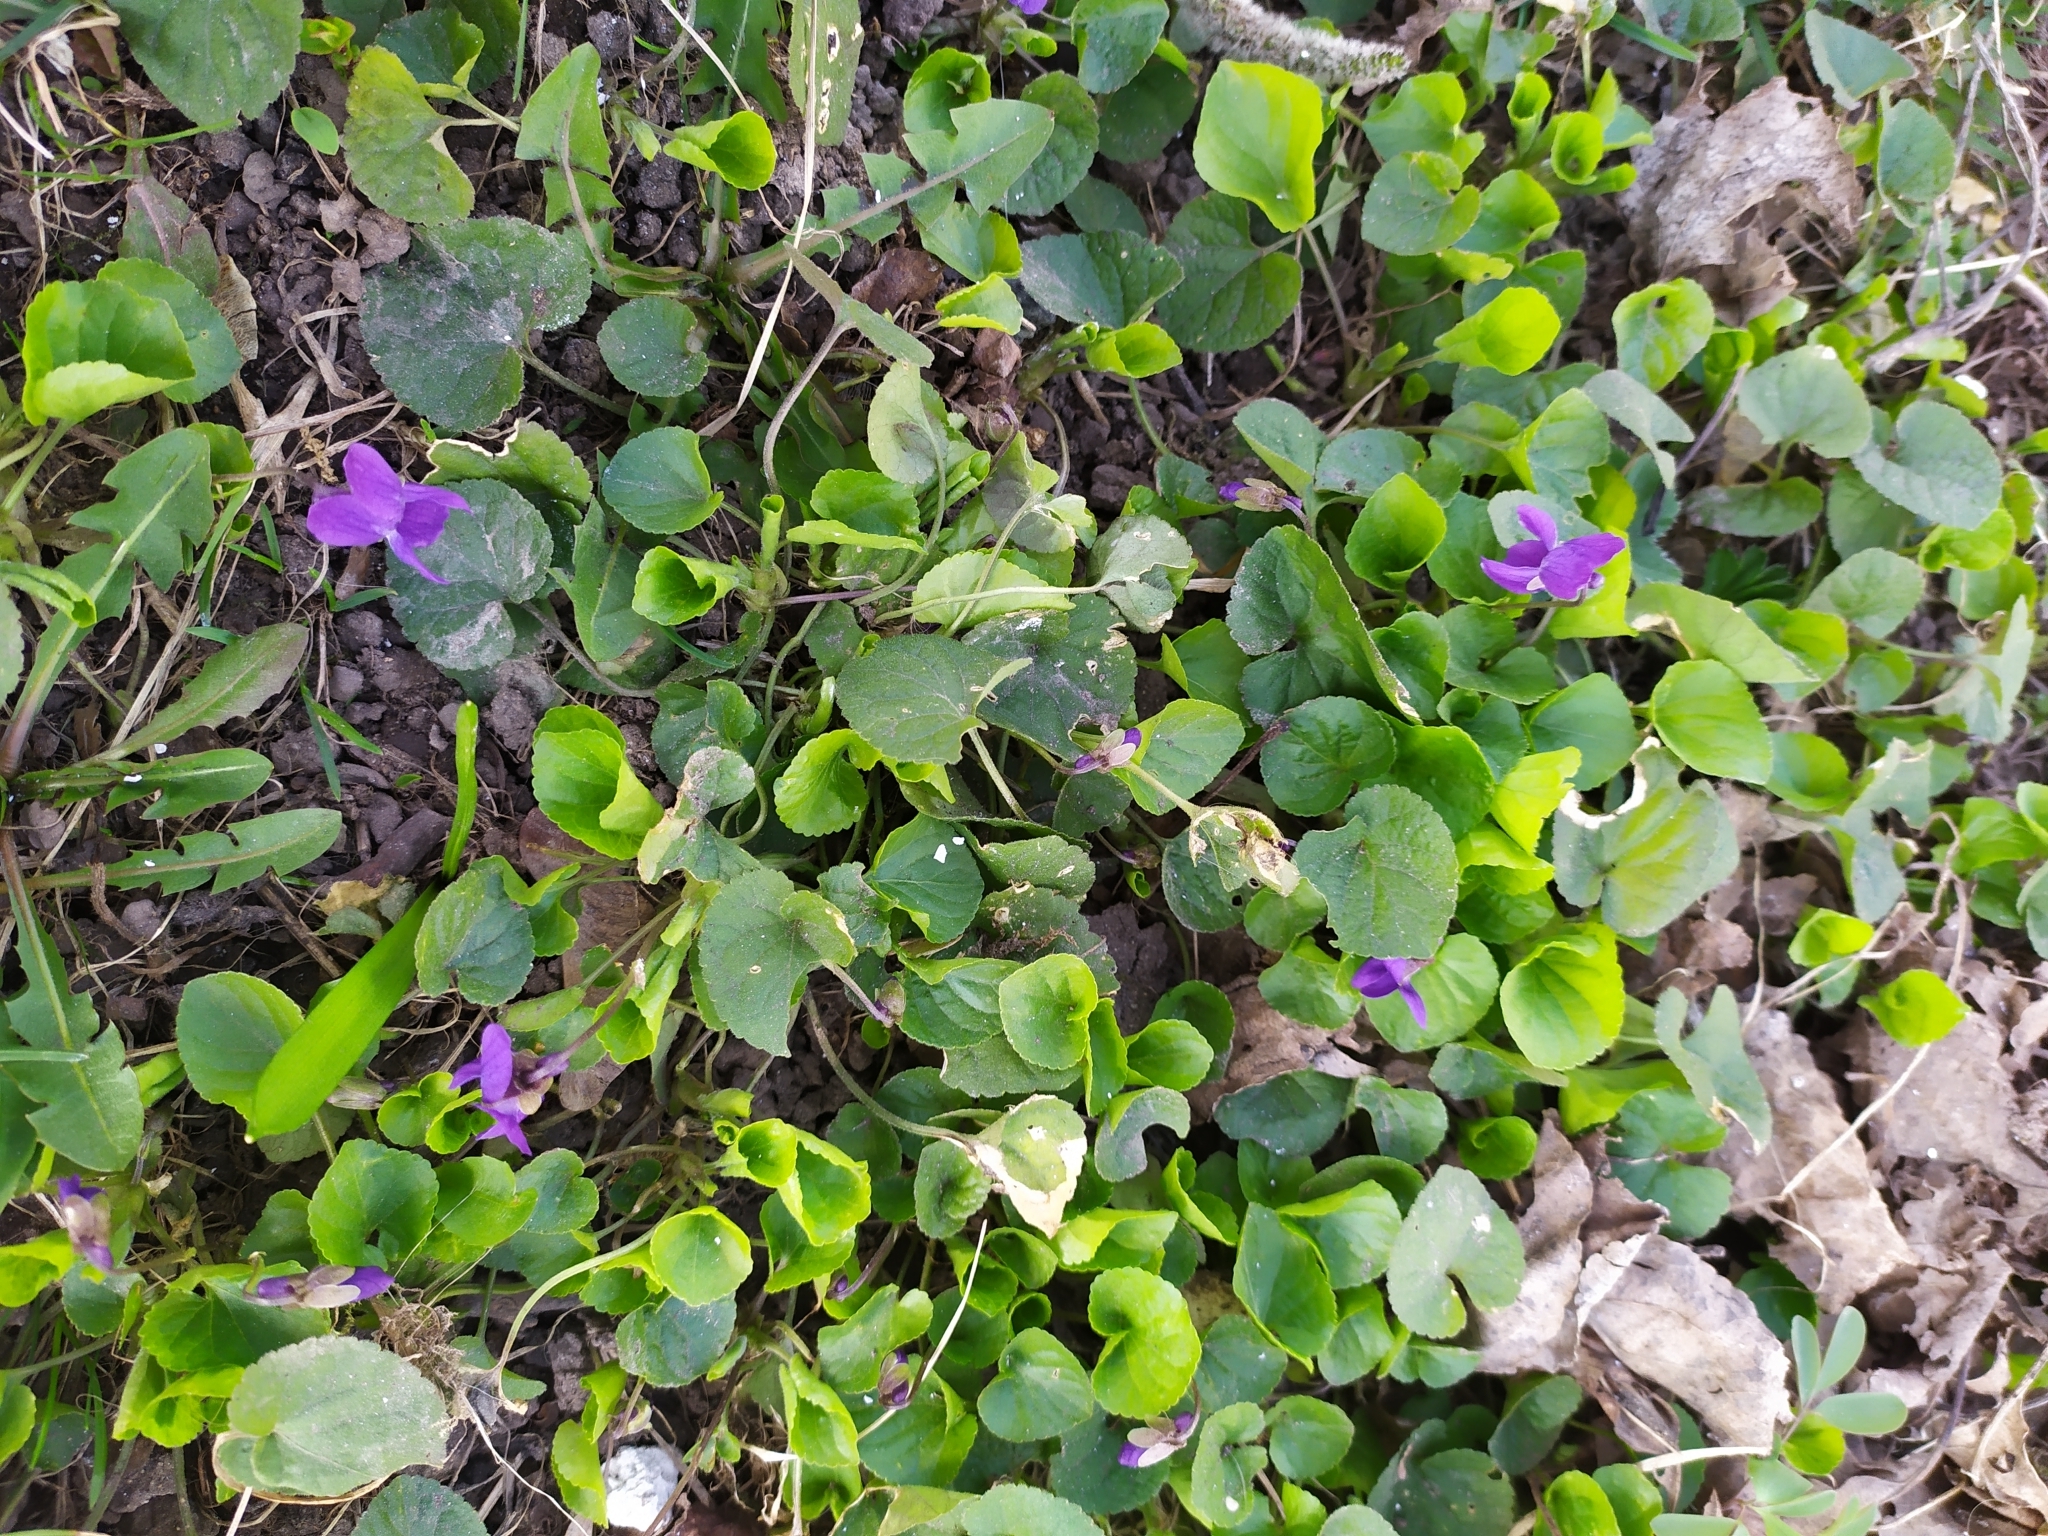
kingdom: Plantae
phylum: Tracheophyta
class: Magnoliopsida
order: Malpighiales
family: Violaceae
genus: Viola
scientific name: Viola odorata
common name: Sweet violet
